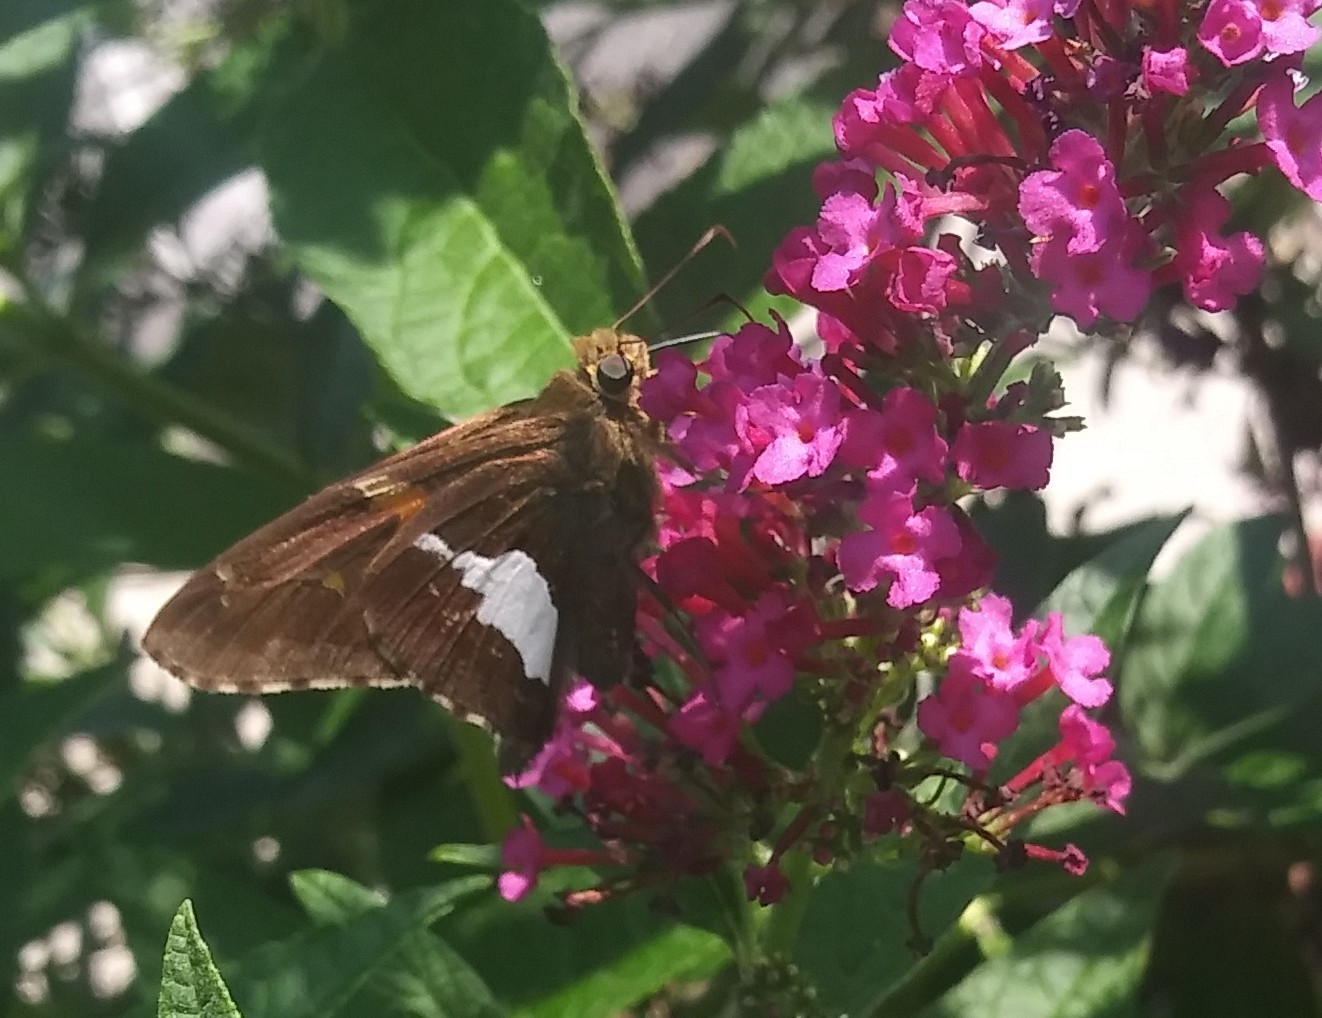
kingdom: Animalia
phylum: Arthropoda
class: Insecta
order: Lepidoptera
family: Hesperiidae
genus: Epargyreus
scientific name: Epargyreus clarus
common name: Silver-spotted skipper
